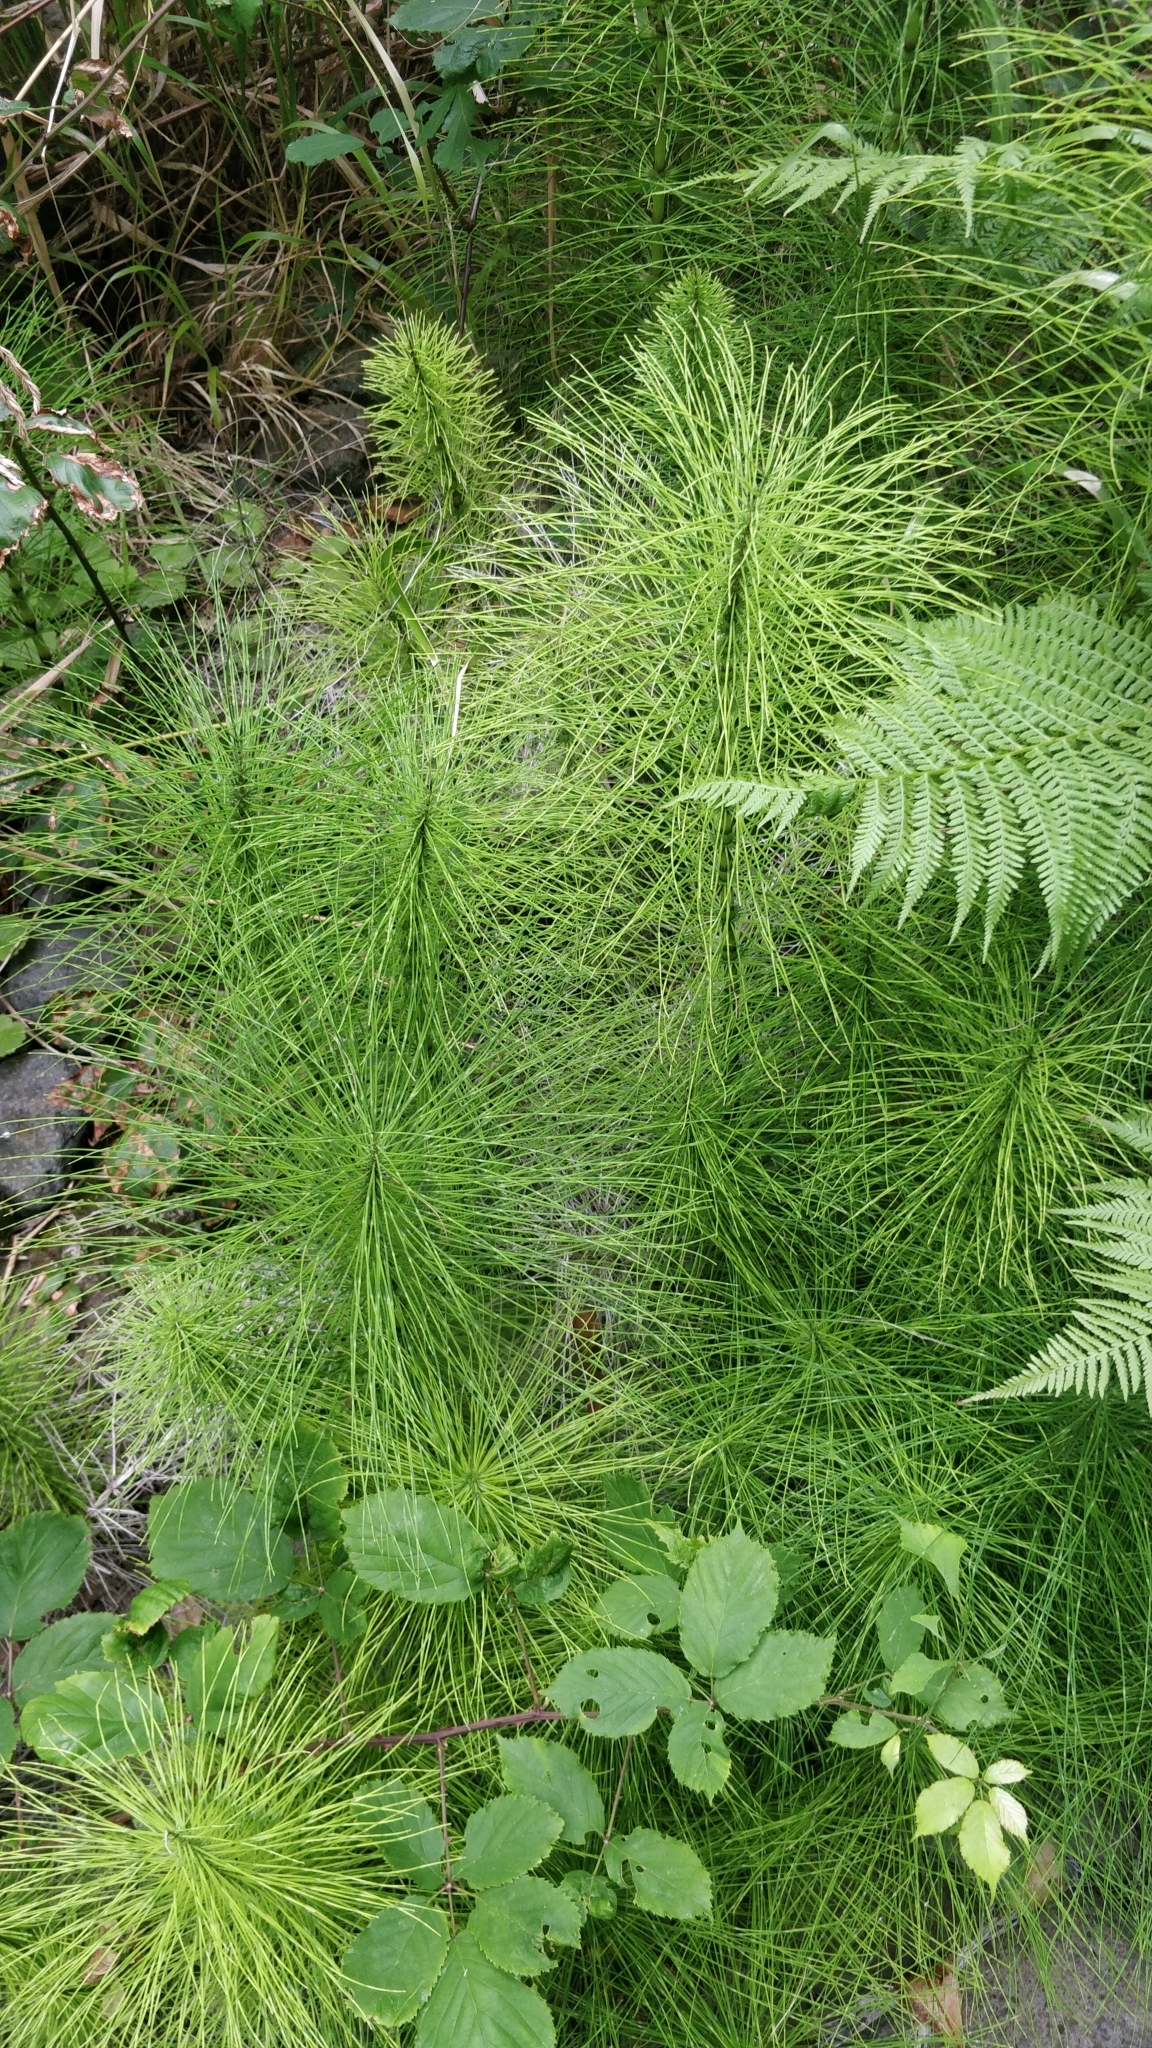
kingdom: Plantae
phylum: Tracheophyta
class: Polypodiopsida
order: Equisetales
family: Equisetaceae
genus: Equisetum
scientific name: Equisetum telmateia
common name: Great horsetail
